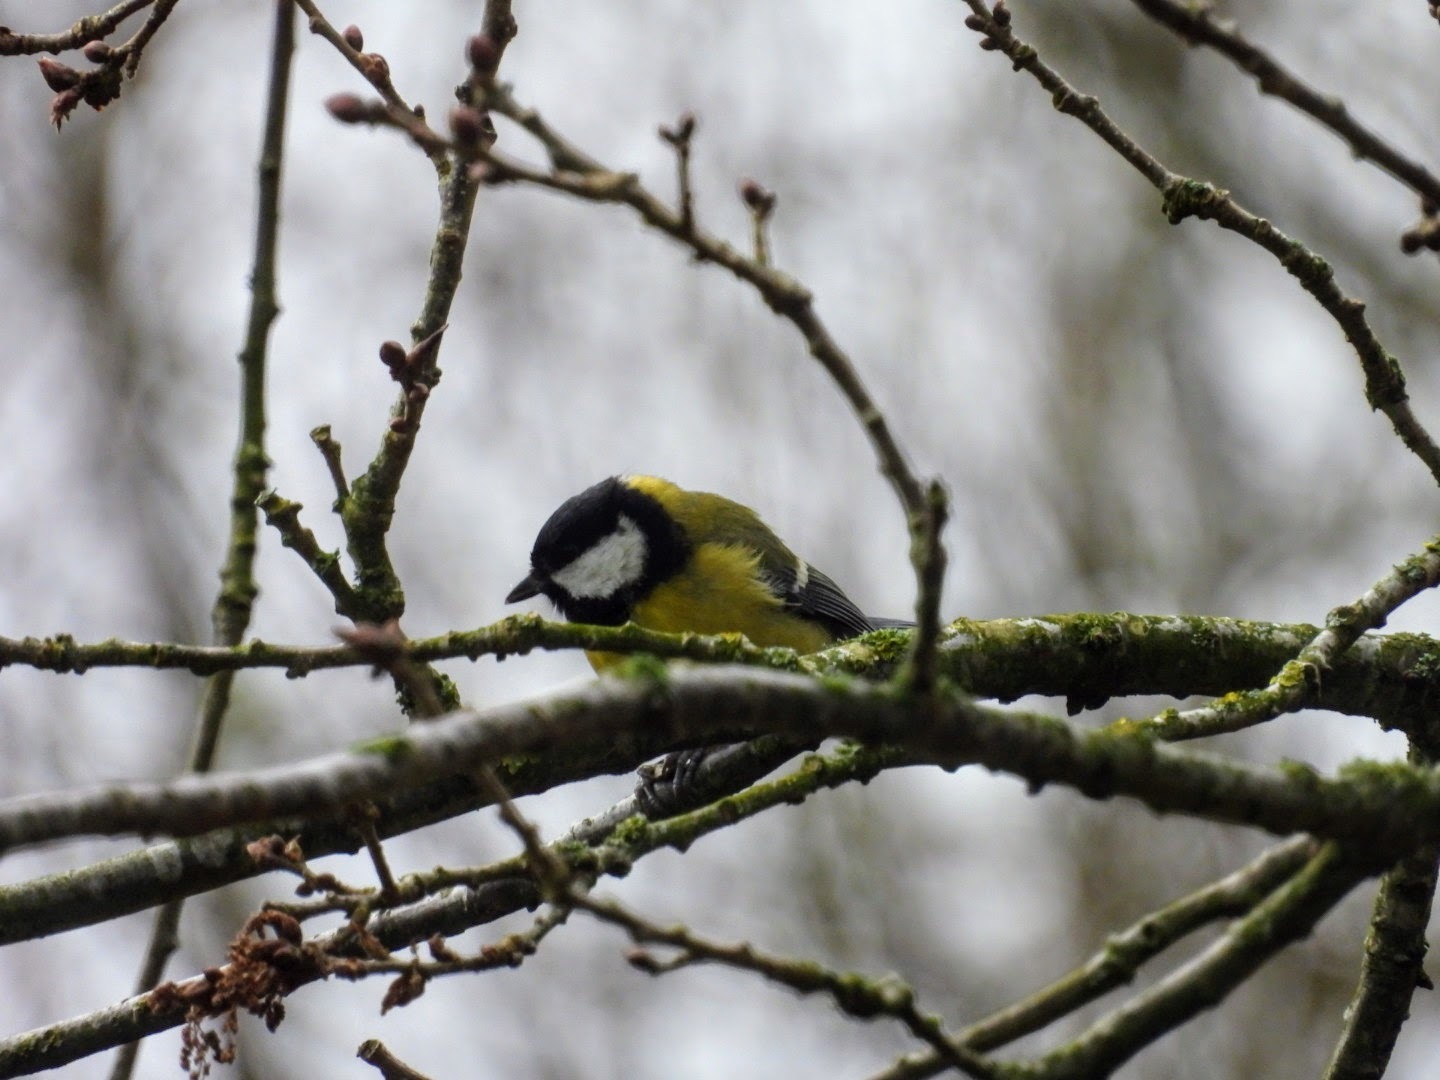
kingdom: Animalia
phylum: Chordata
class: Aves
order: Passeriformes
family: Paridae
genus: Parus
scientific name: Parus major
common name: Great tit
